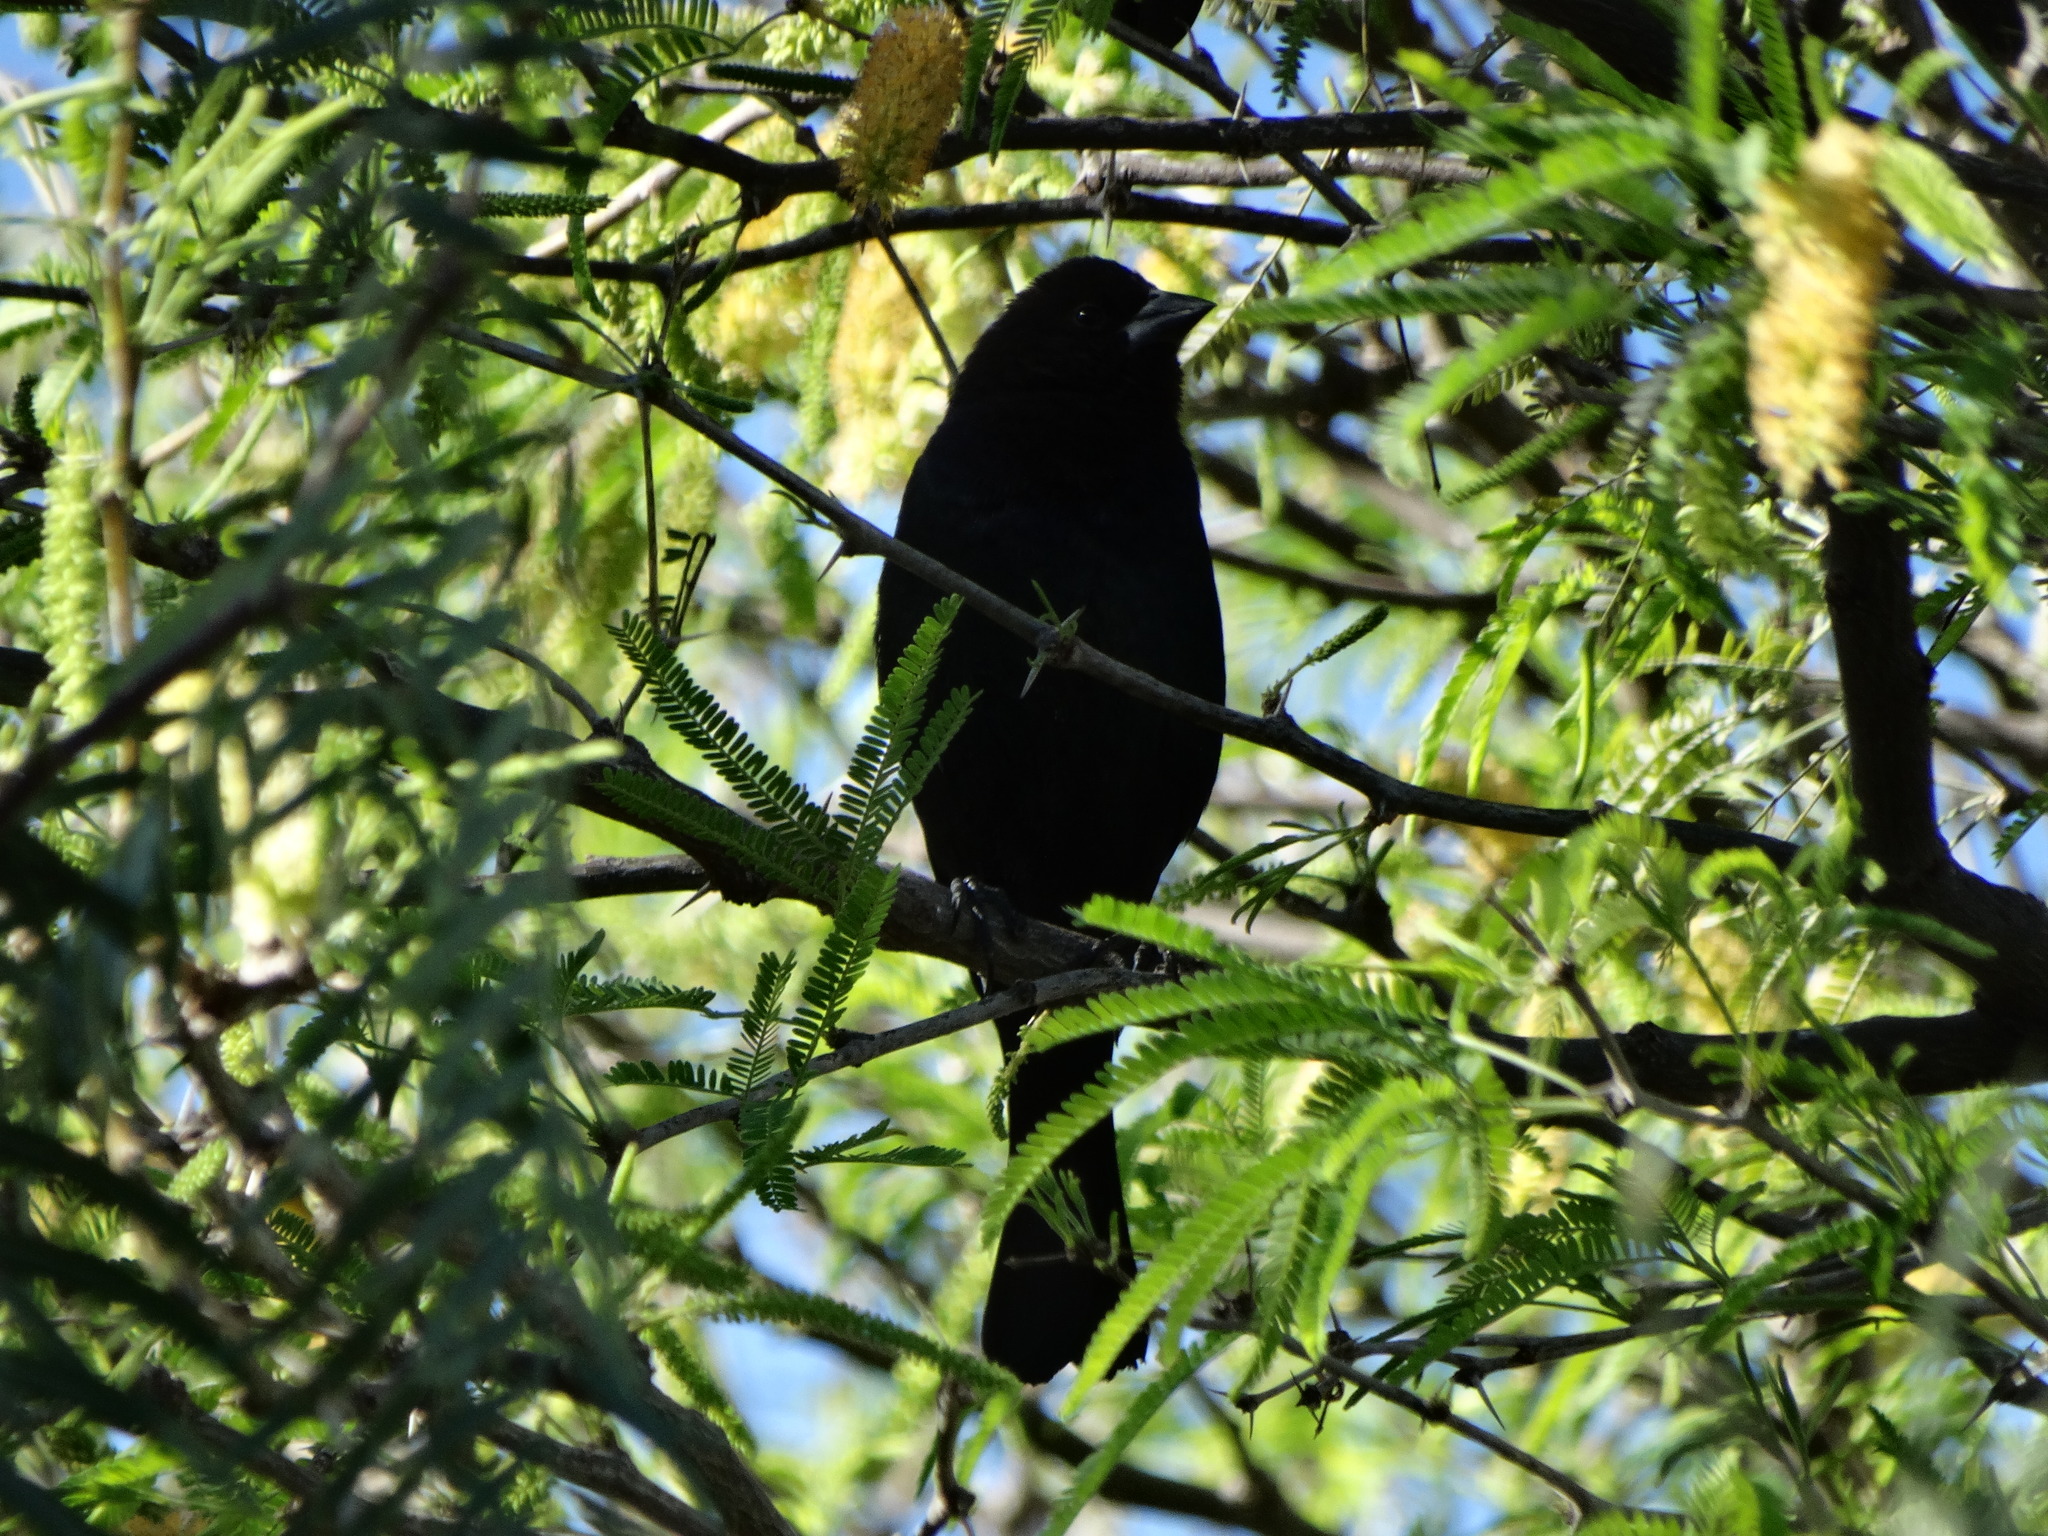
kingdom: Animalia
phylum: Chordata
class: Aves
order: Passeriformes
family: Icteridae
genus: Molothrus
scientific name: Molothrus aeneus
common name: Bronzed cowbird
